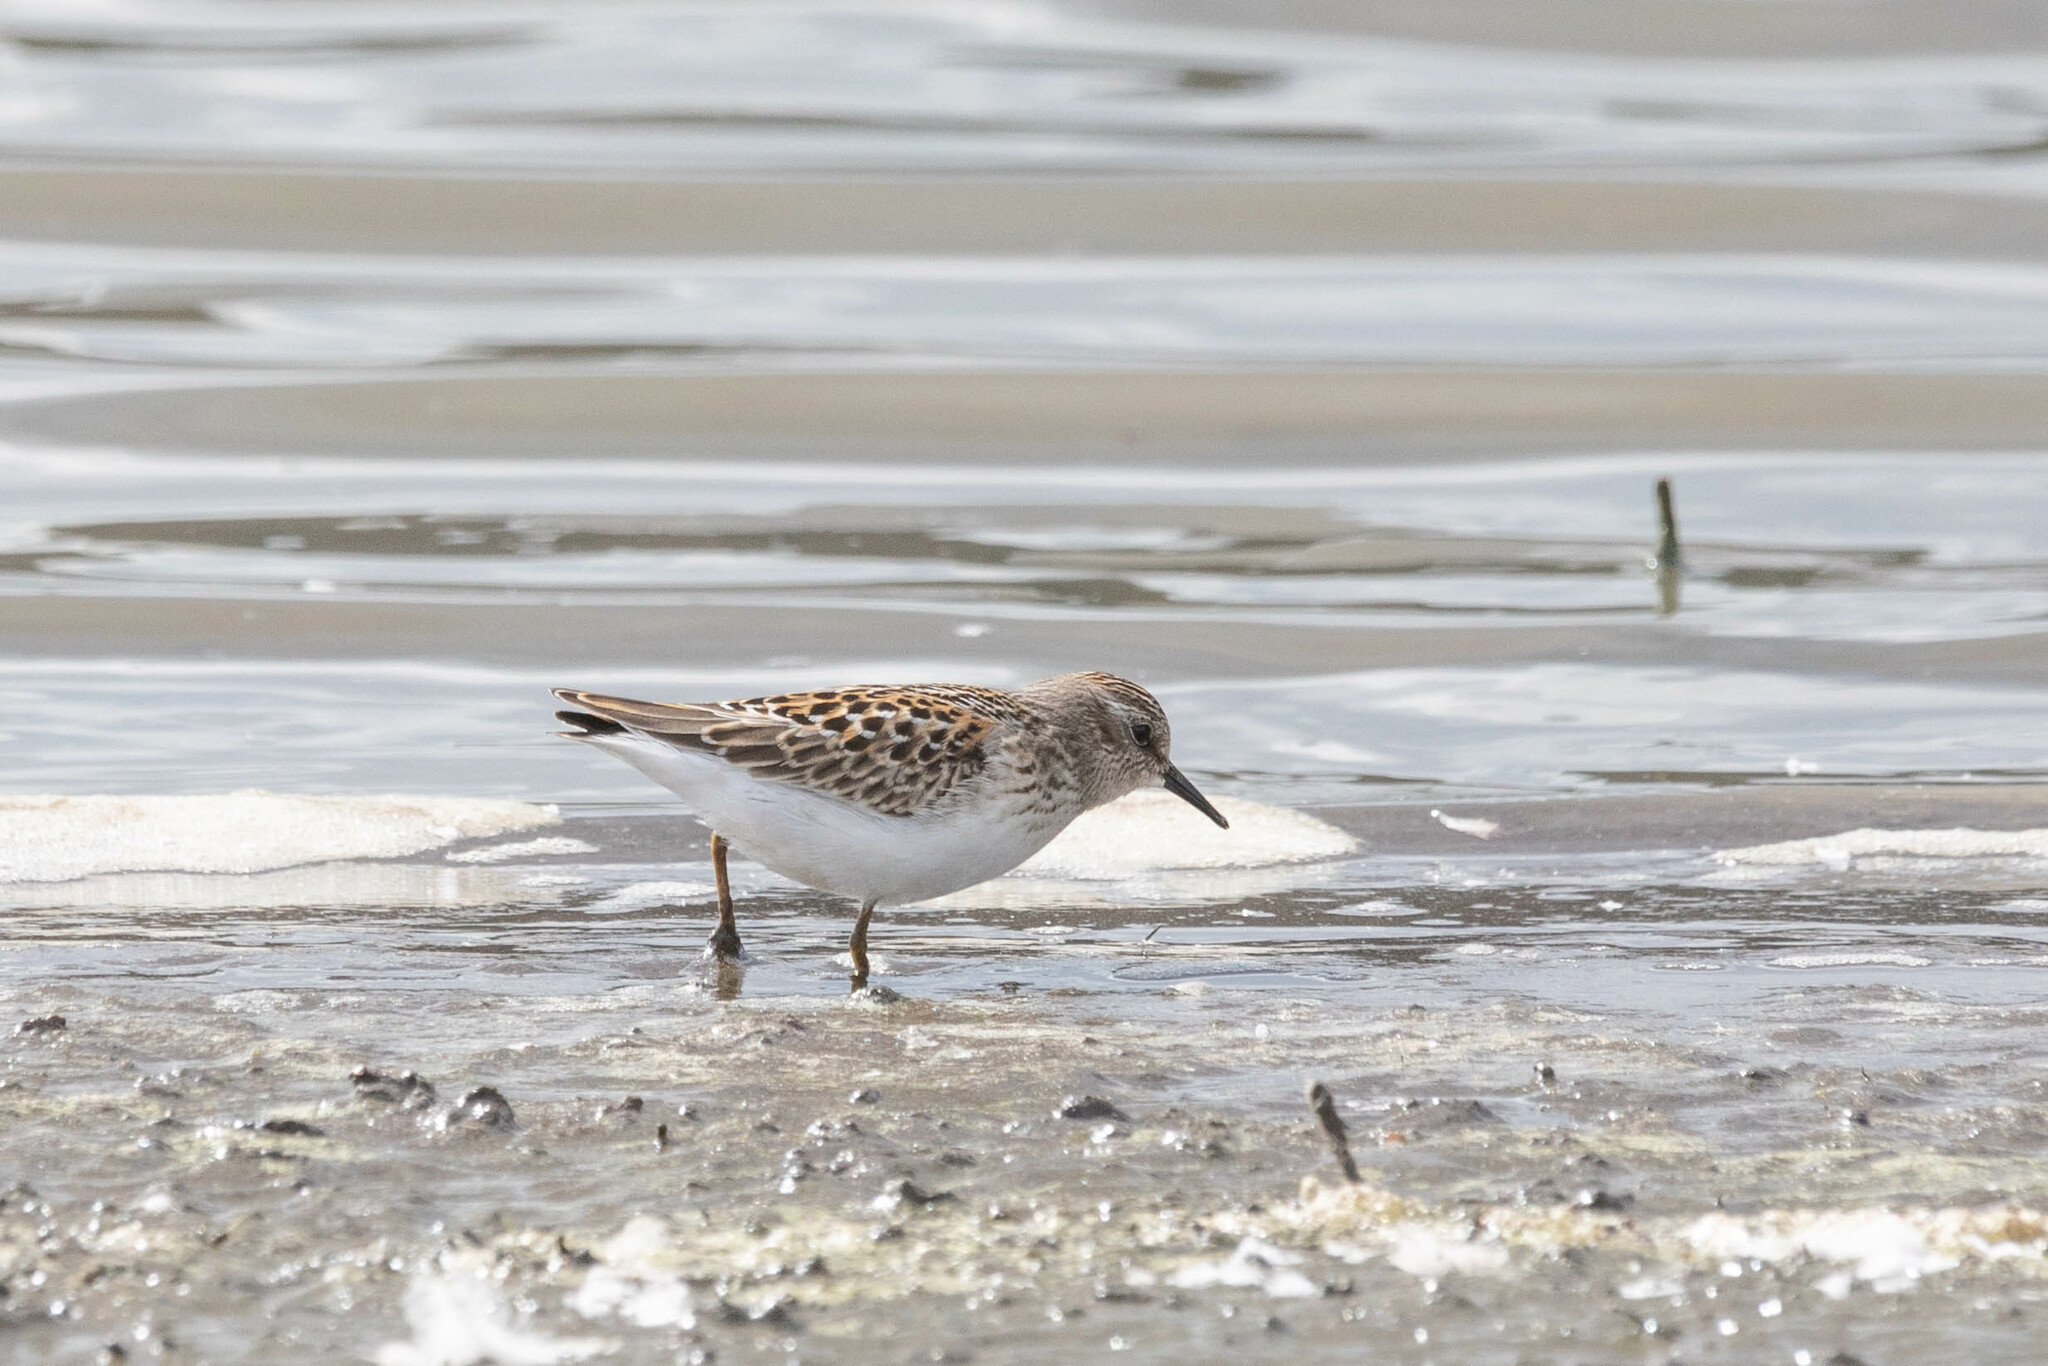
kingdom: Animalia
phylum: Chordata
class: Aves
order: Charadriiformes
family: Scolopacidae
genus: Calidris
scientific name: Calidris minutilla
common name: Least sandpiper
